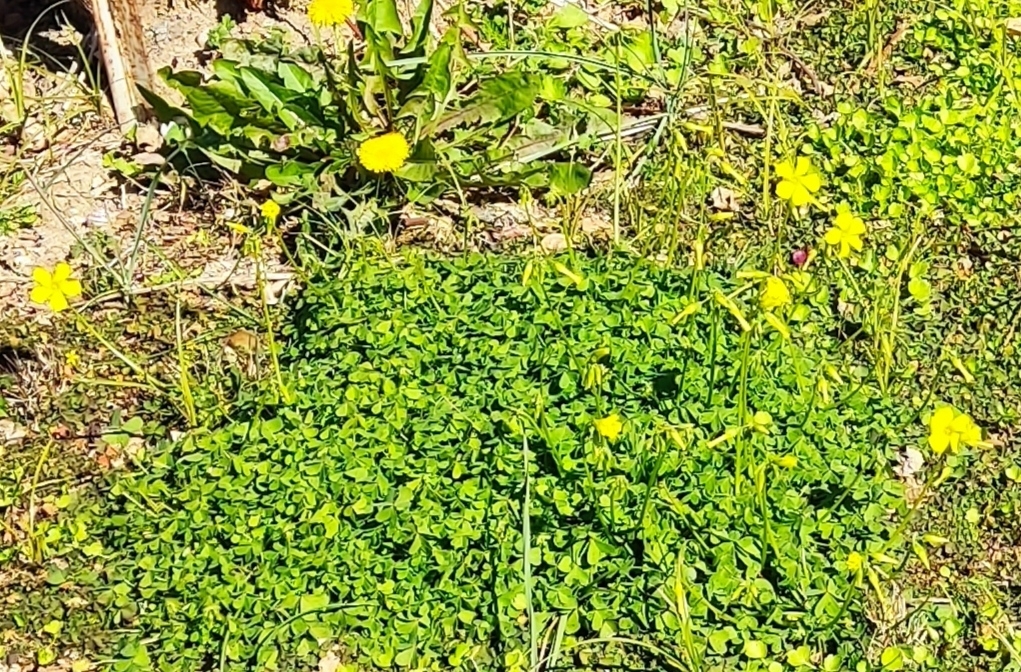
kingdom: Plantae
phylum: Tracheophyta
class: Magnoliopsida
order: Oxalidales
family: Oxalidaceae
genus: Oxalis
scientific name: Oxalis pes-caprae
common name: Bermuda-buttercup
